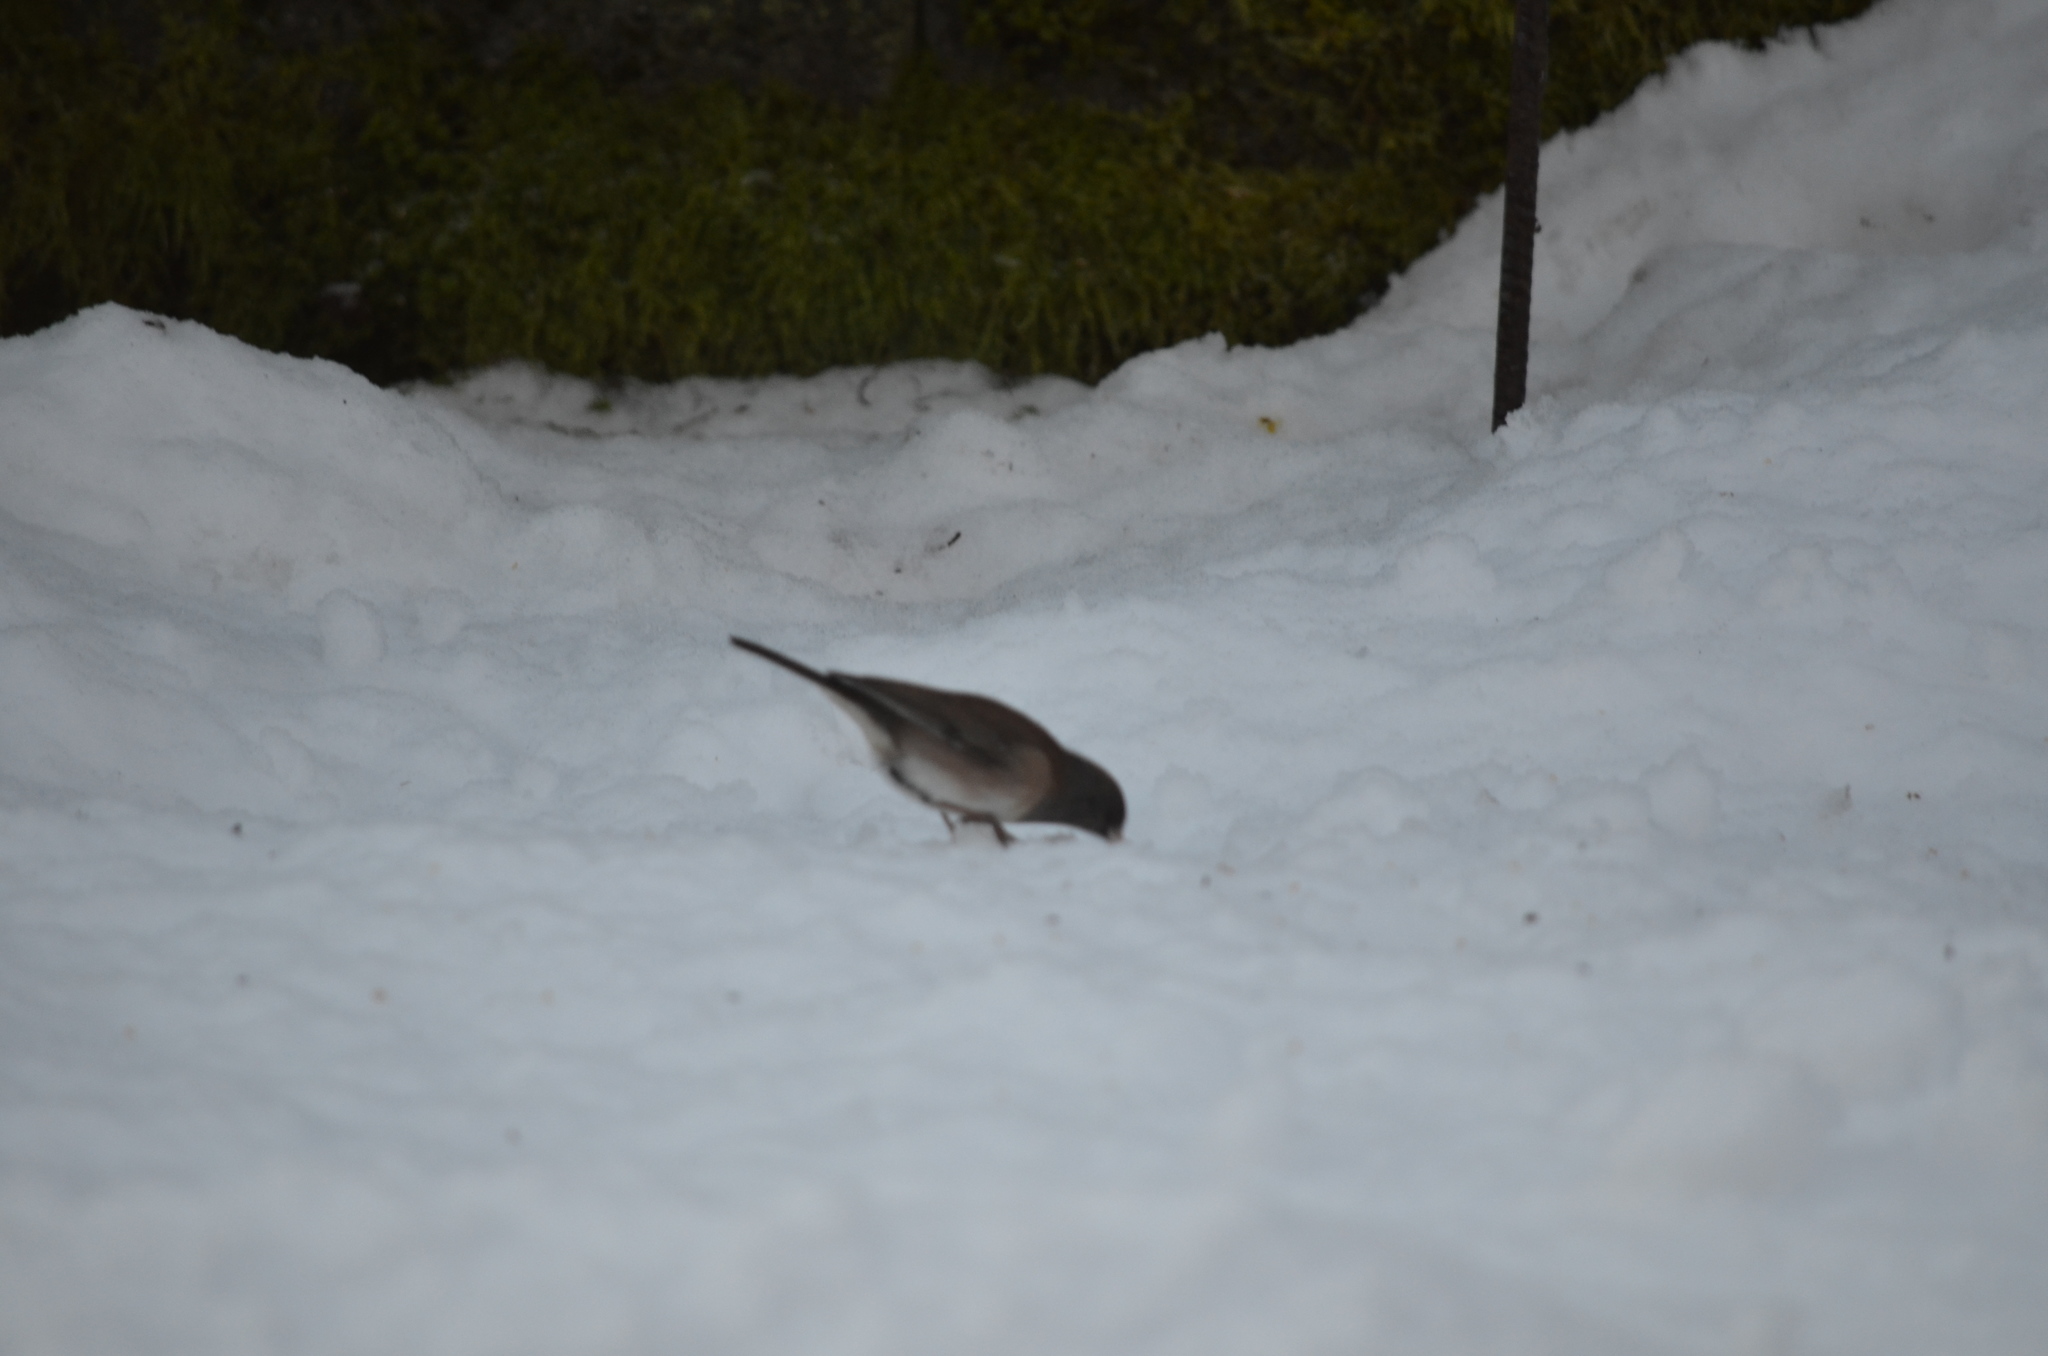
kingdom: Animalia
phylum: Chordata
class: Aves
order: Passeriformes
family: Passerellidae
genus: Junco
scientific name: Junco hyemalis
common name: Dark-eyed junco
